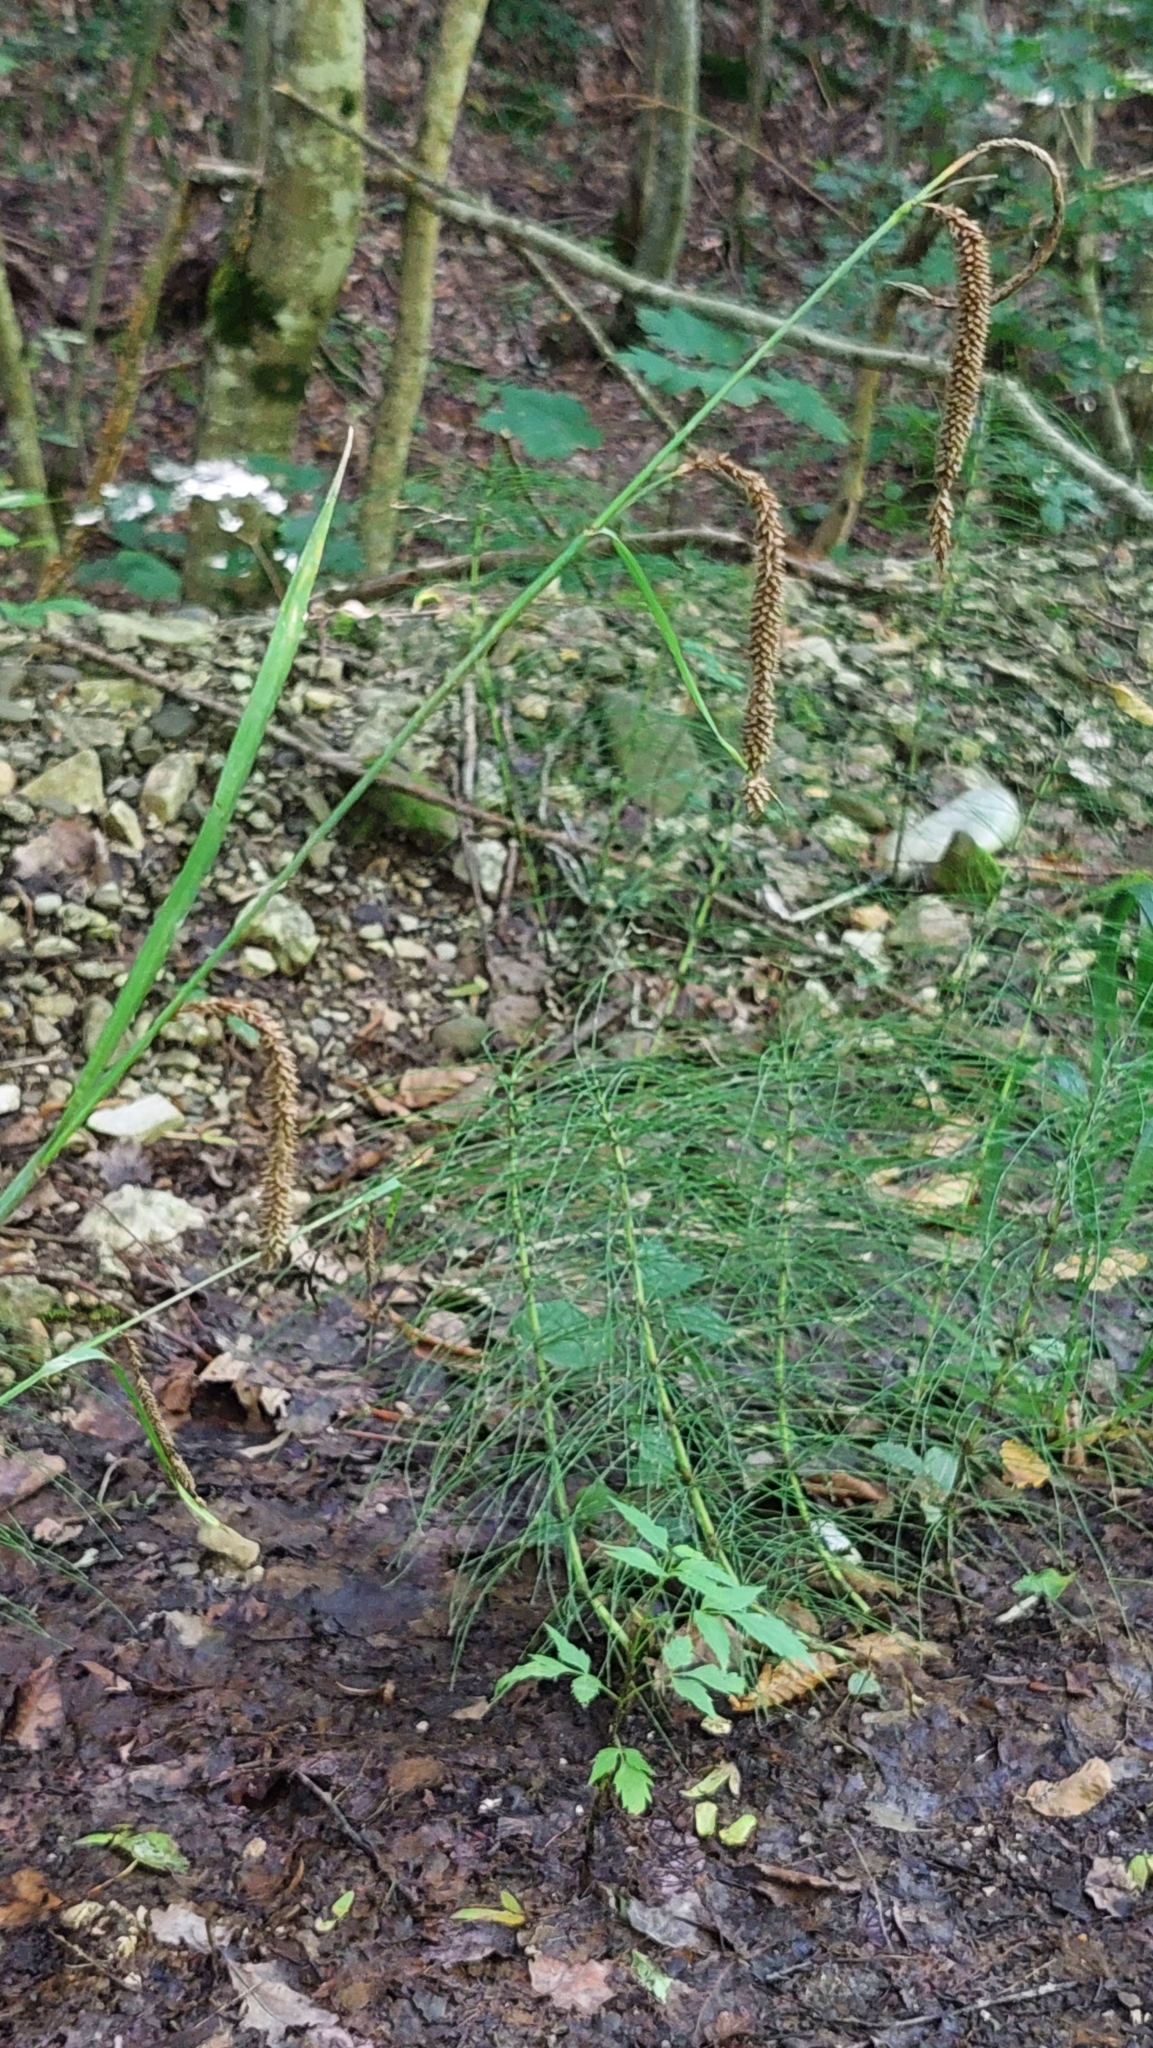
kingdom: Plantae
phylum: Tracheophyta
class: Liliopsida
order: Poales
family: Cyperaceae
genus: Carex
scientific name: Carex pendula
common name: Pendulous sedge
